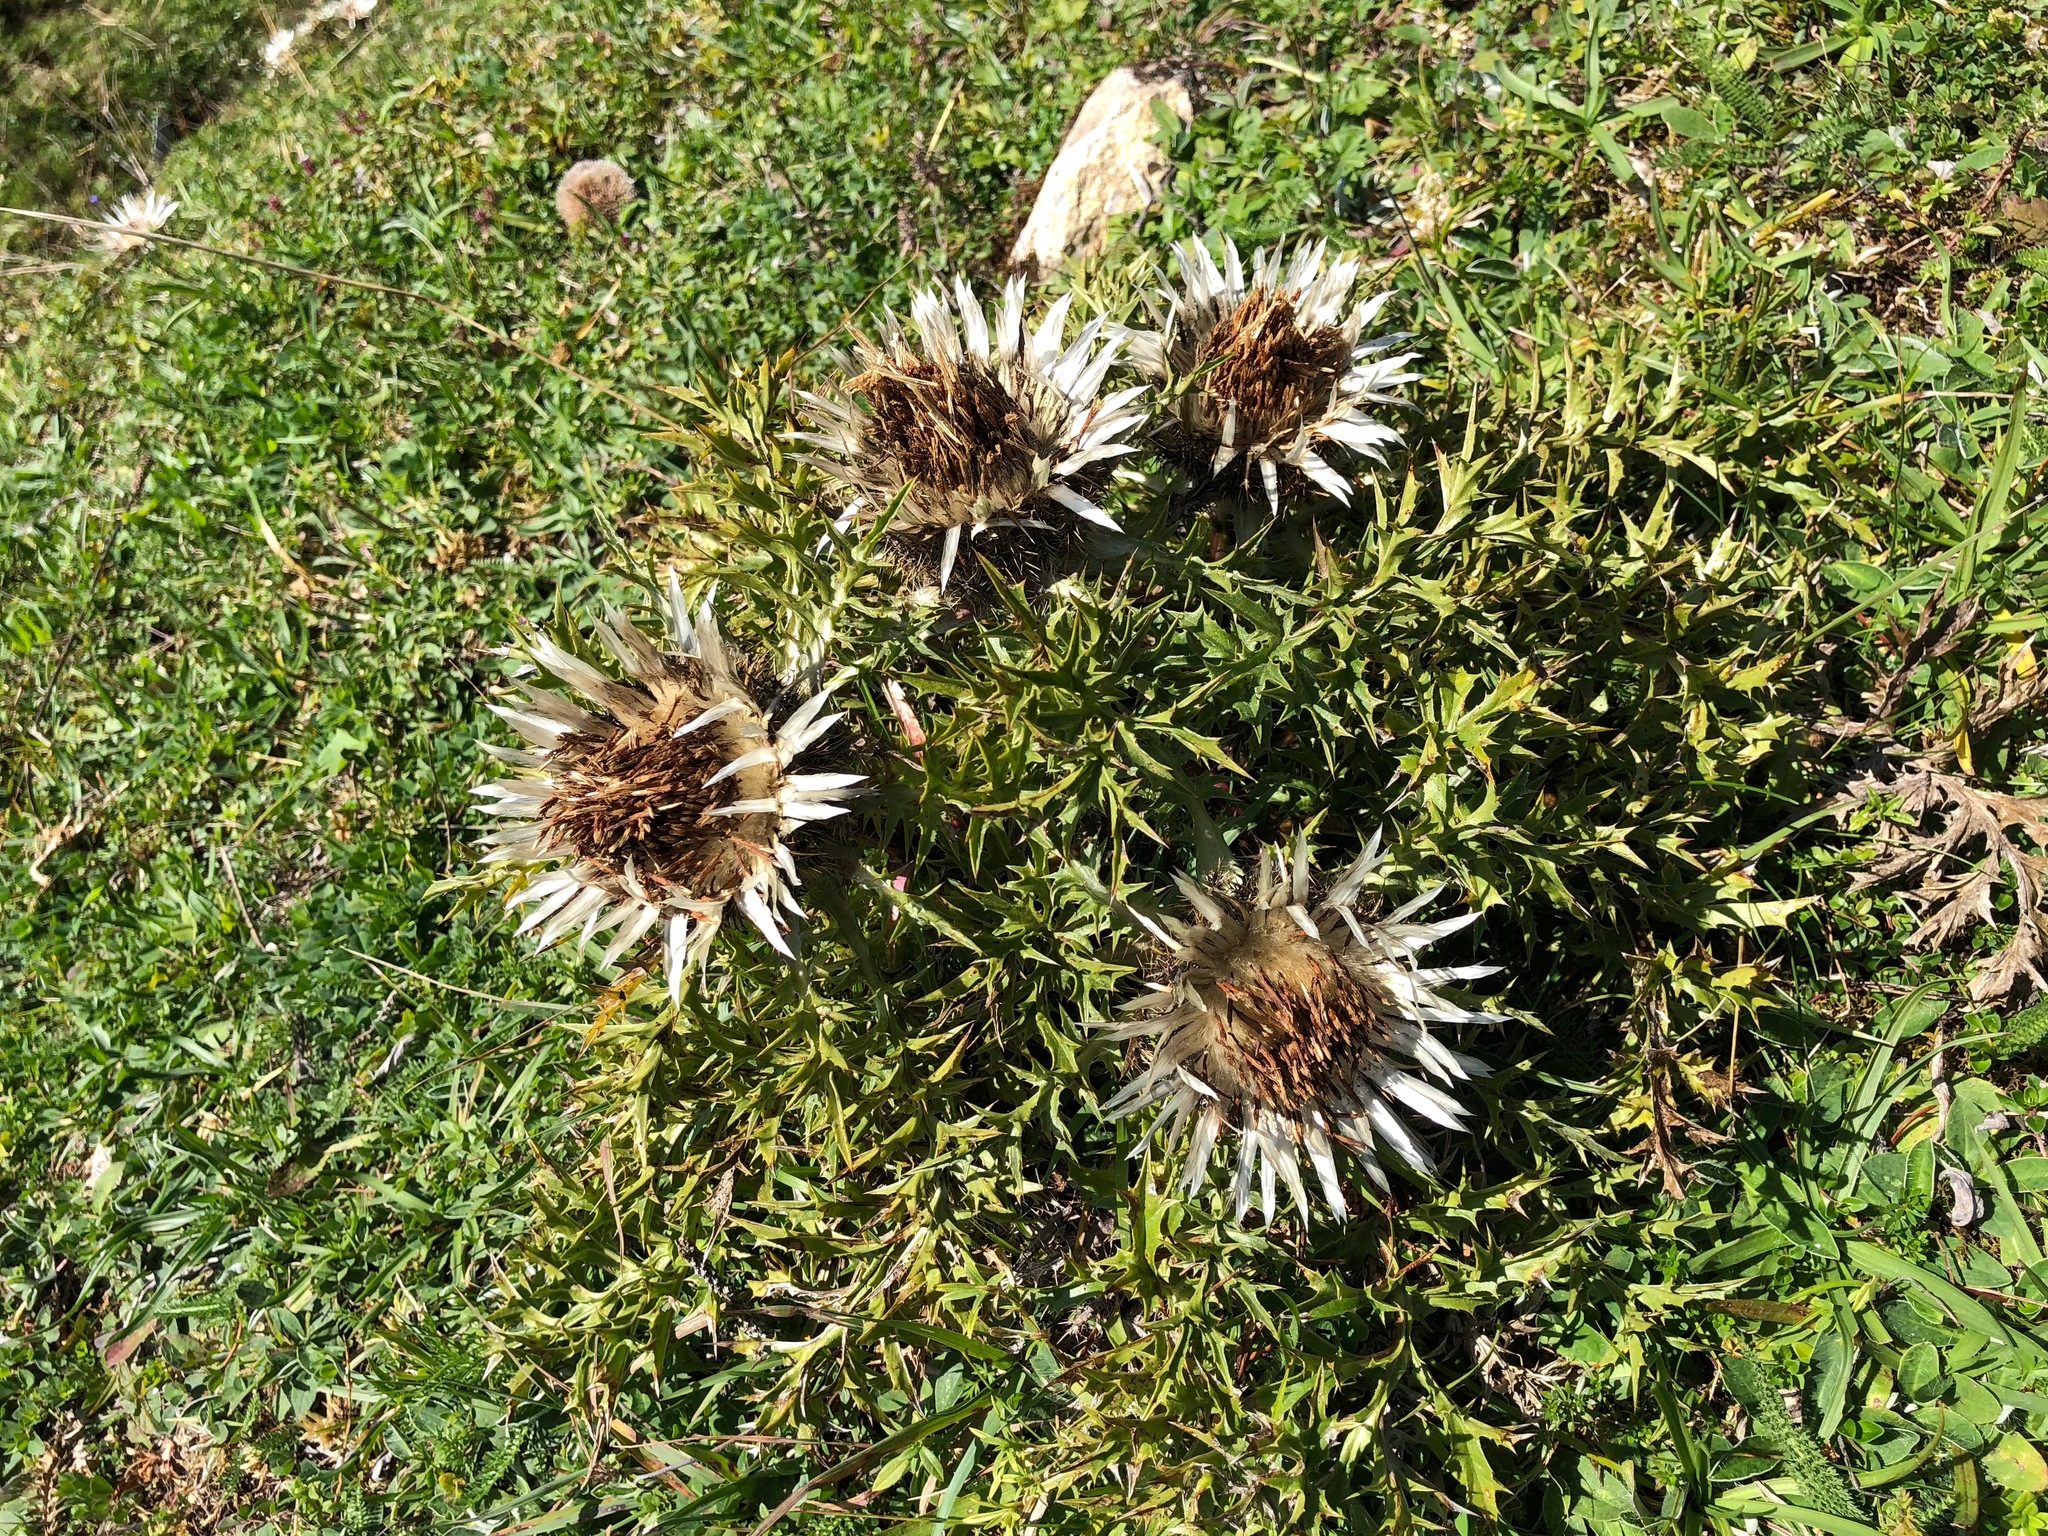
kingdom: Plantae
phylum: Tracheophyta
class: Magnoliopsida
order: Asterales
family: Asteraceae
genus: Carlina
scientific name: Carlina acaulis
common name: Stemless carline thistle
